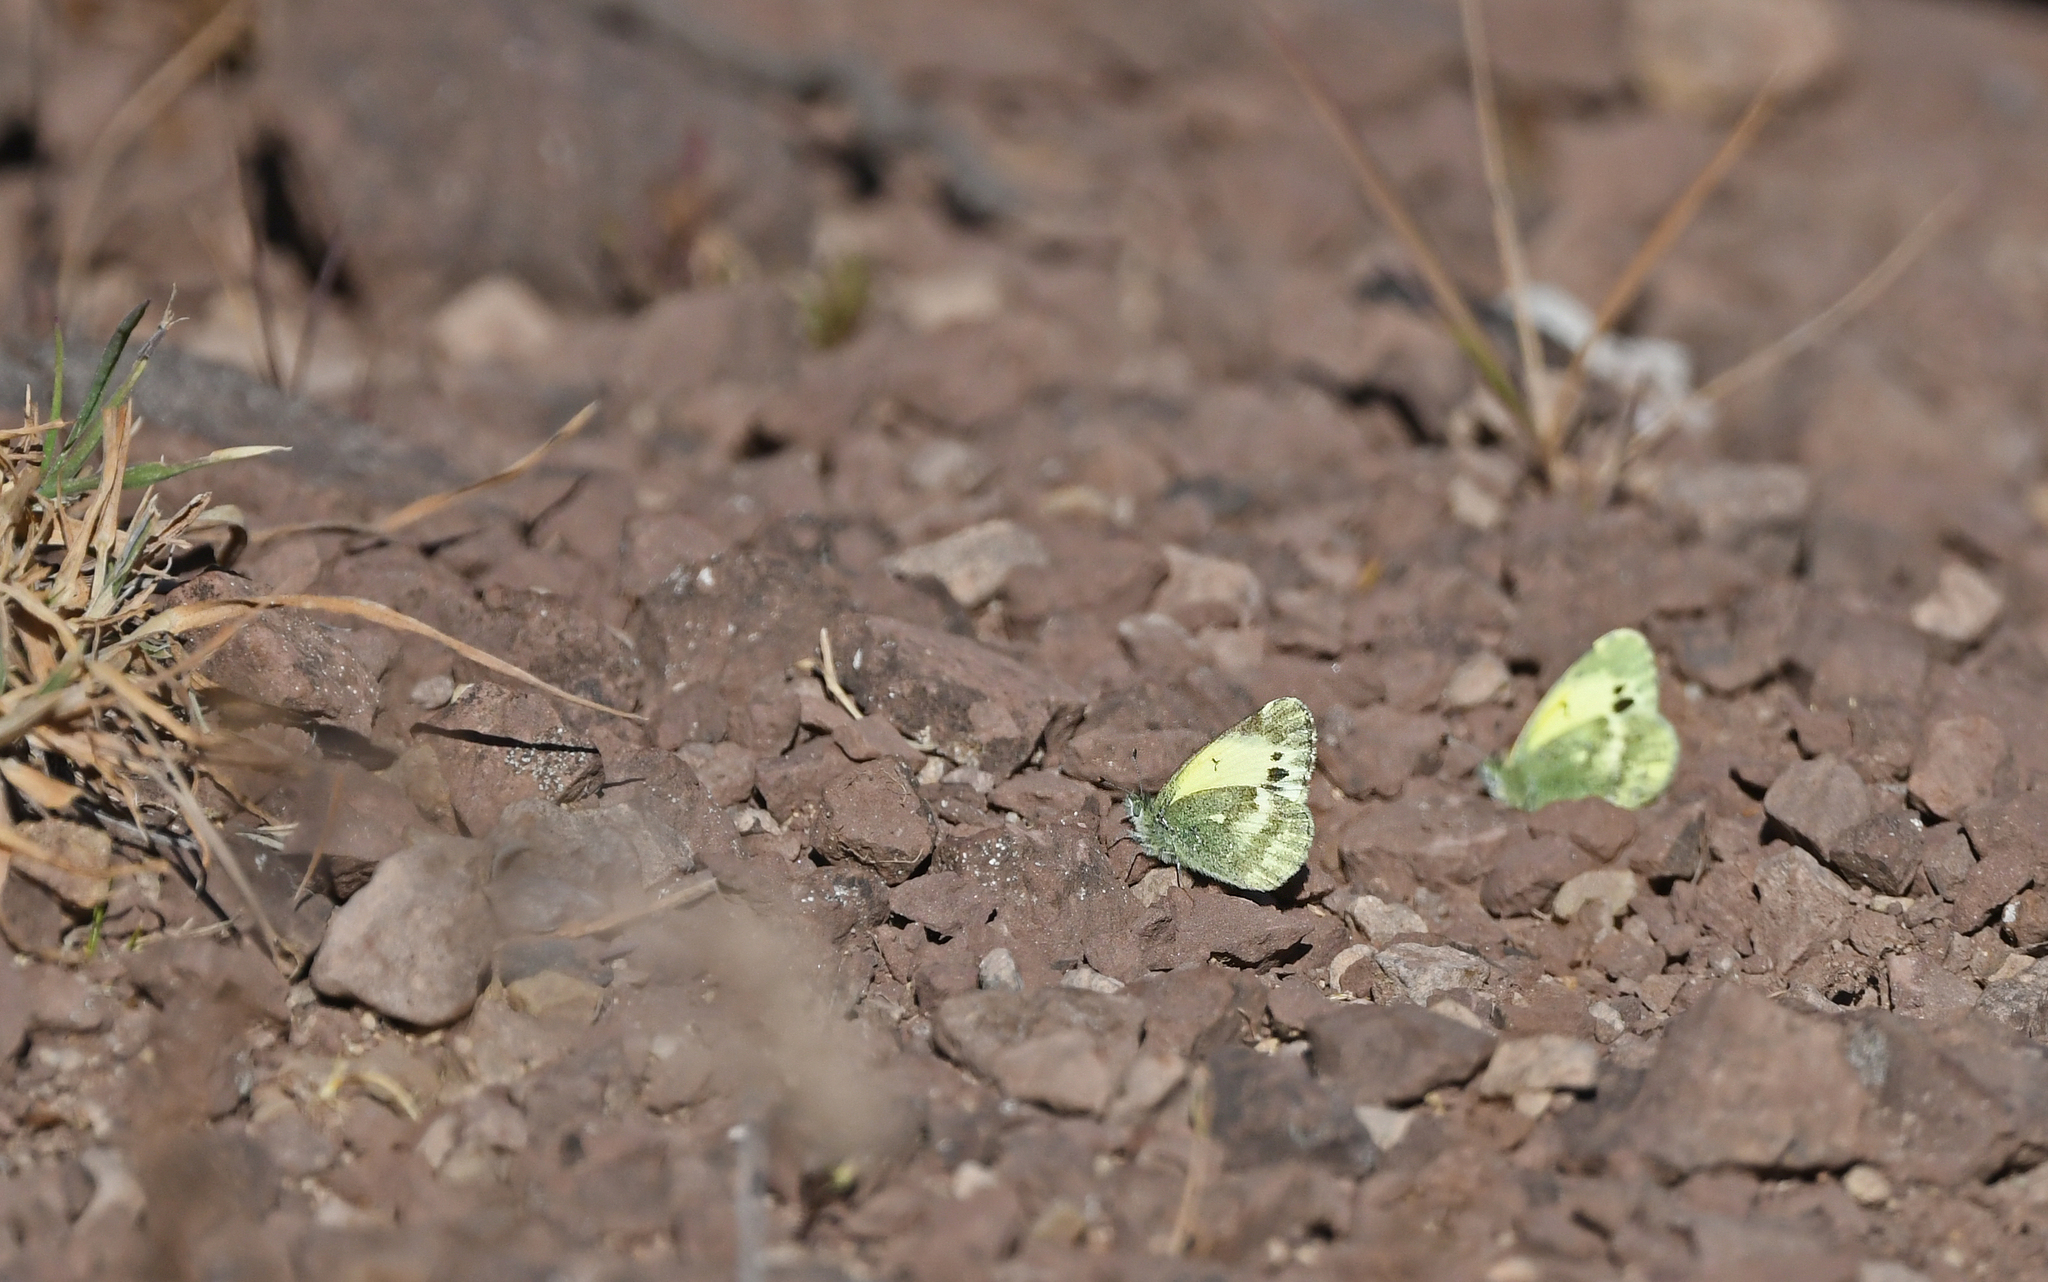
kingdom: Animalia
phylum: Arthropoda
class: Insecta
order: Lepidoptera
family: Pieridae
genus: Nathalis
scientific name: Nathalis iole
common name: Dainty sulphur
